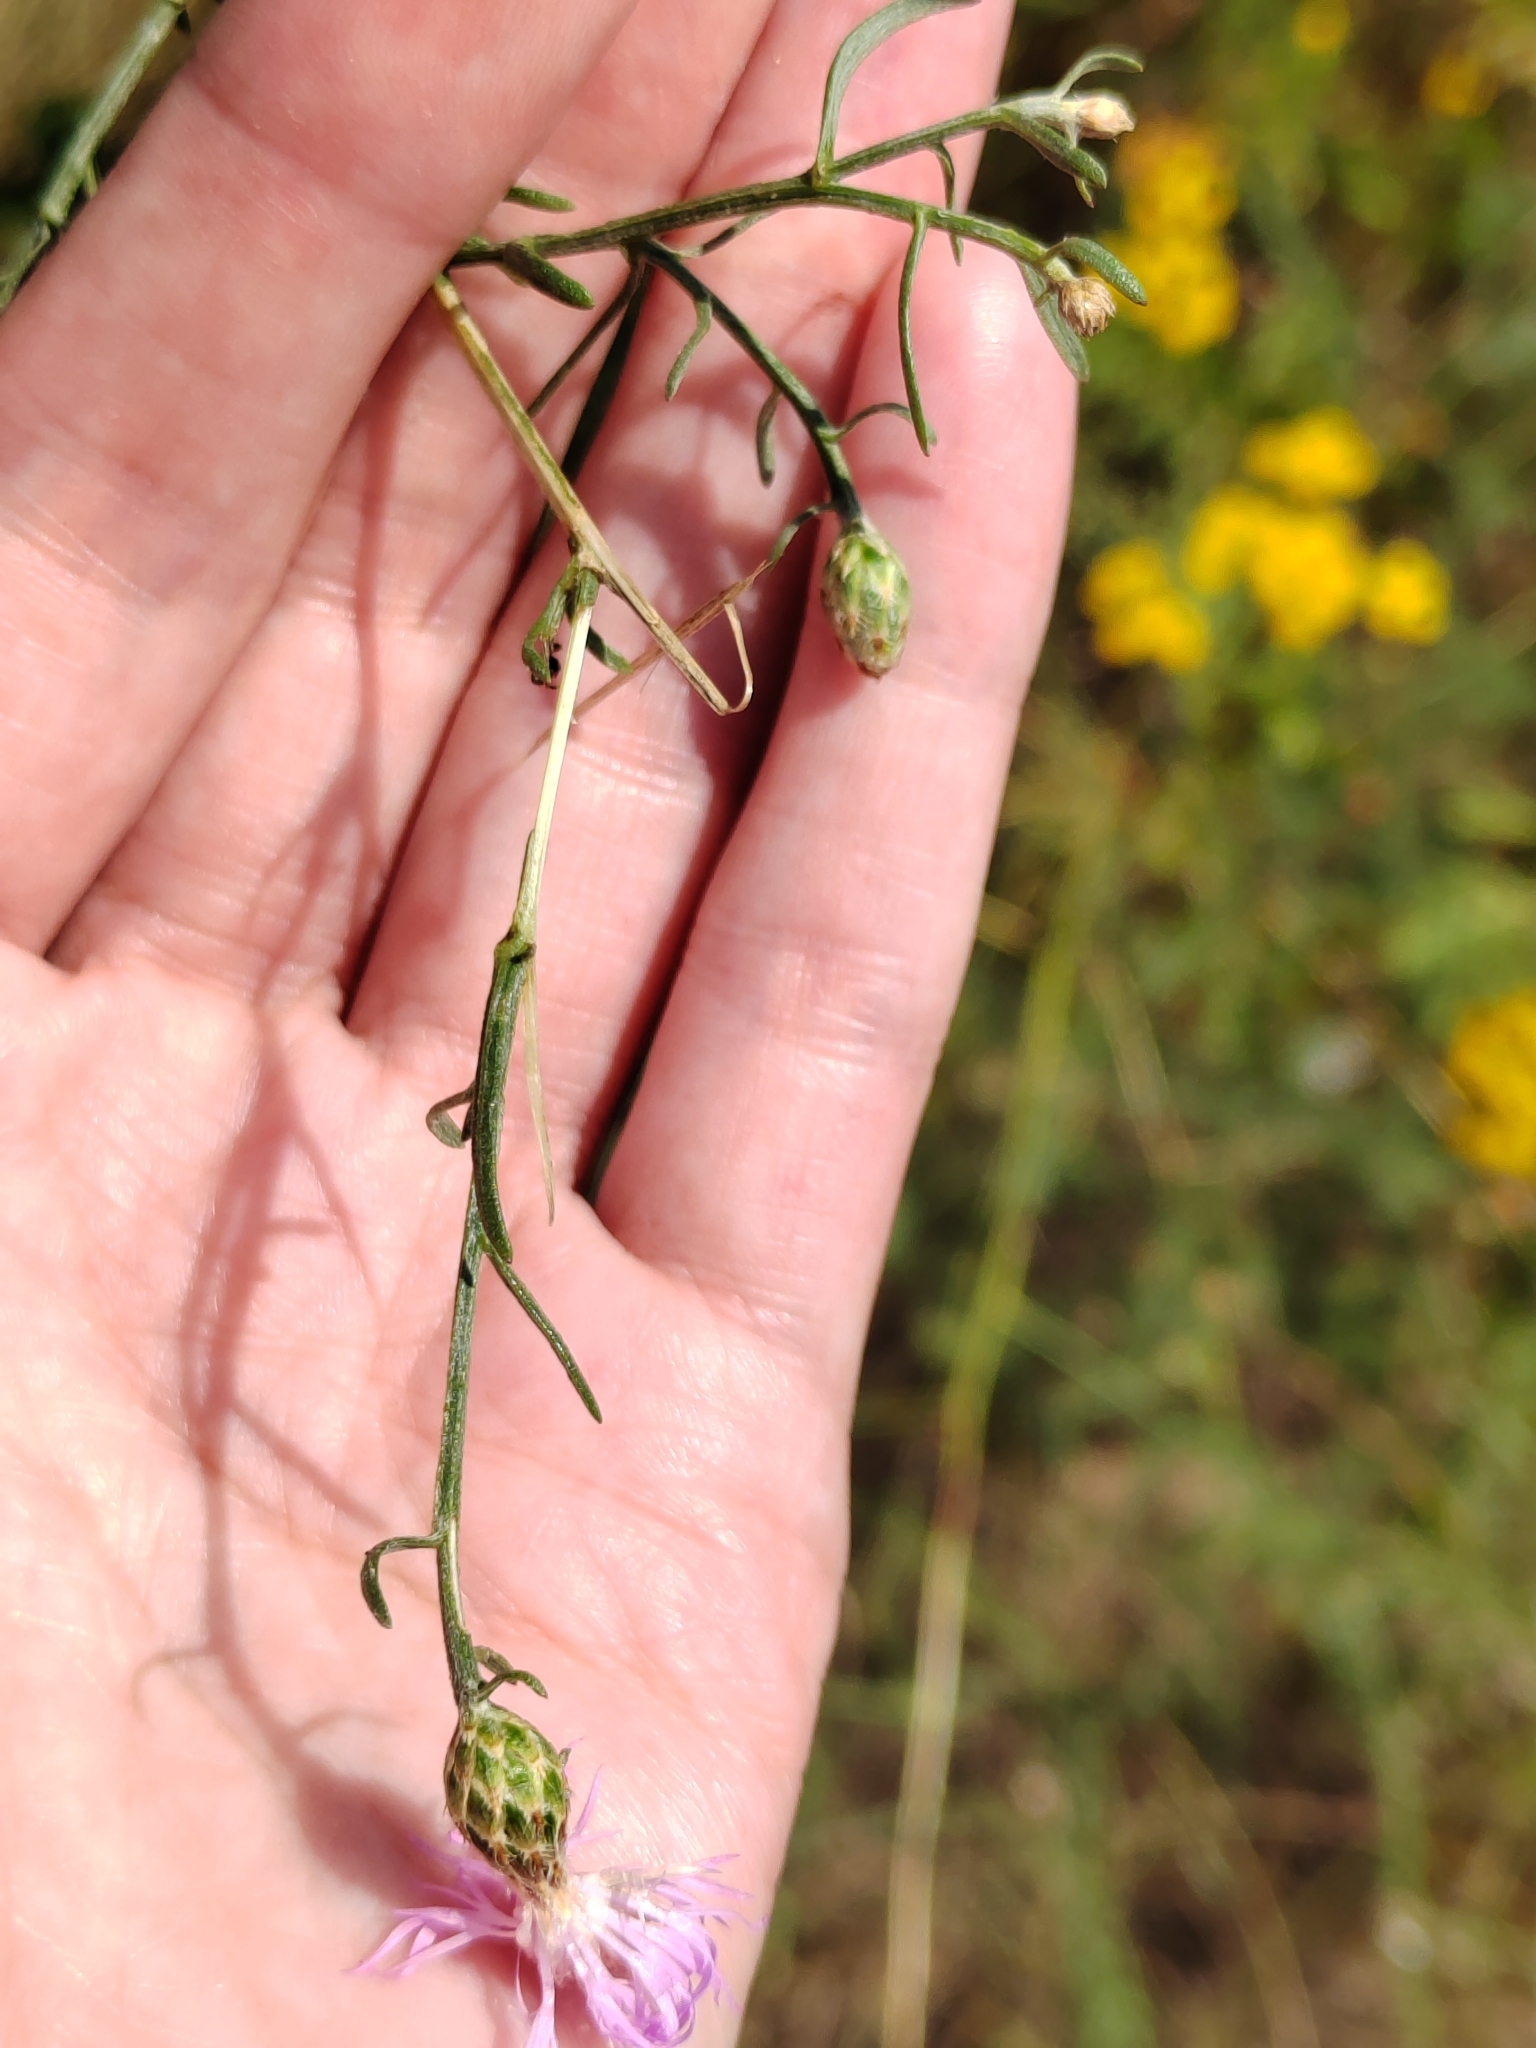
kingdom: Plantae
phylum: Tracheophyta
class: Magnoliopsida
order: Asterales
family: Asteraceae
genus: Centaurea
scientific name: Centaurea arenaria
